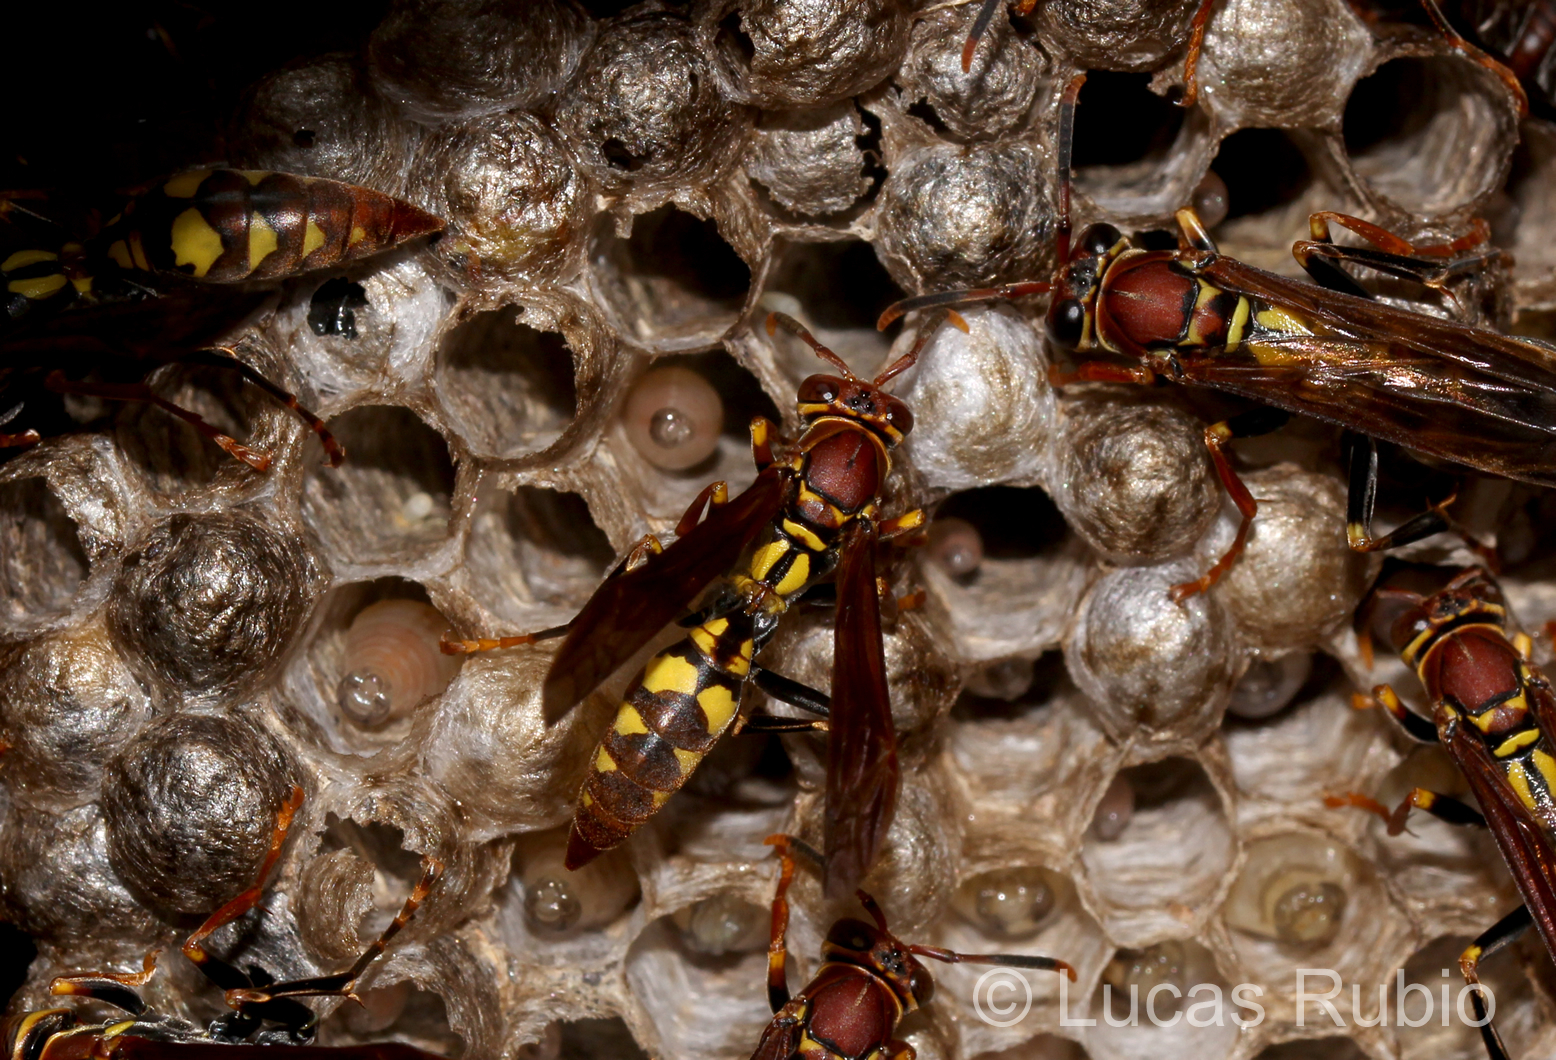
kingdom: Animalia
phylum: Arthropoda
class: Insecta
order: Hymenoptera
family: Eumenidae
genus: Polistes
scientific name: Polistes versicolor
